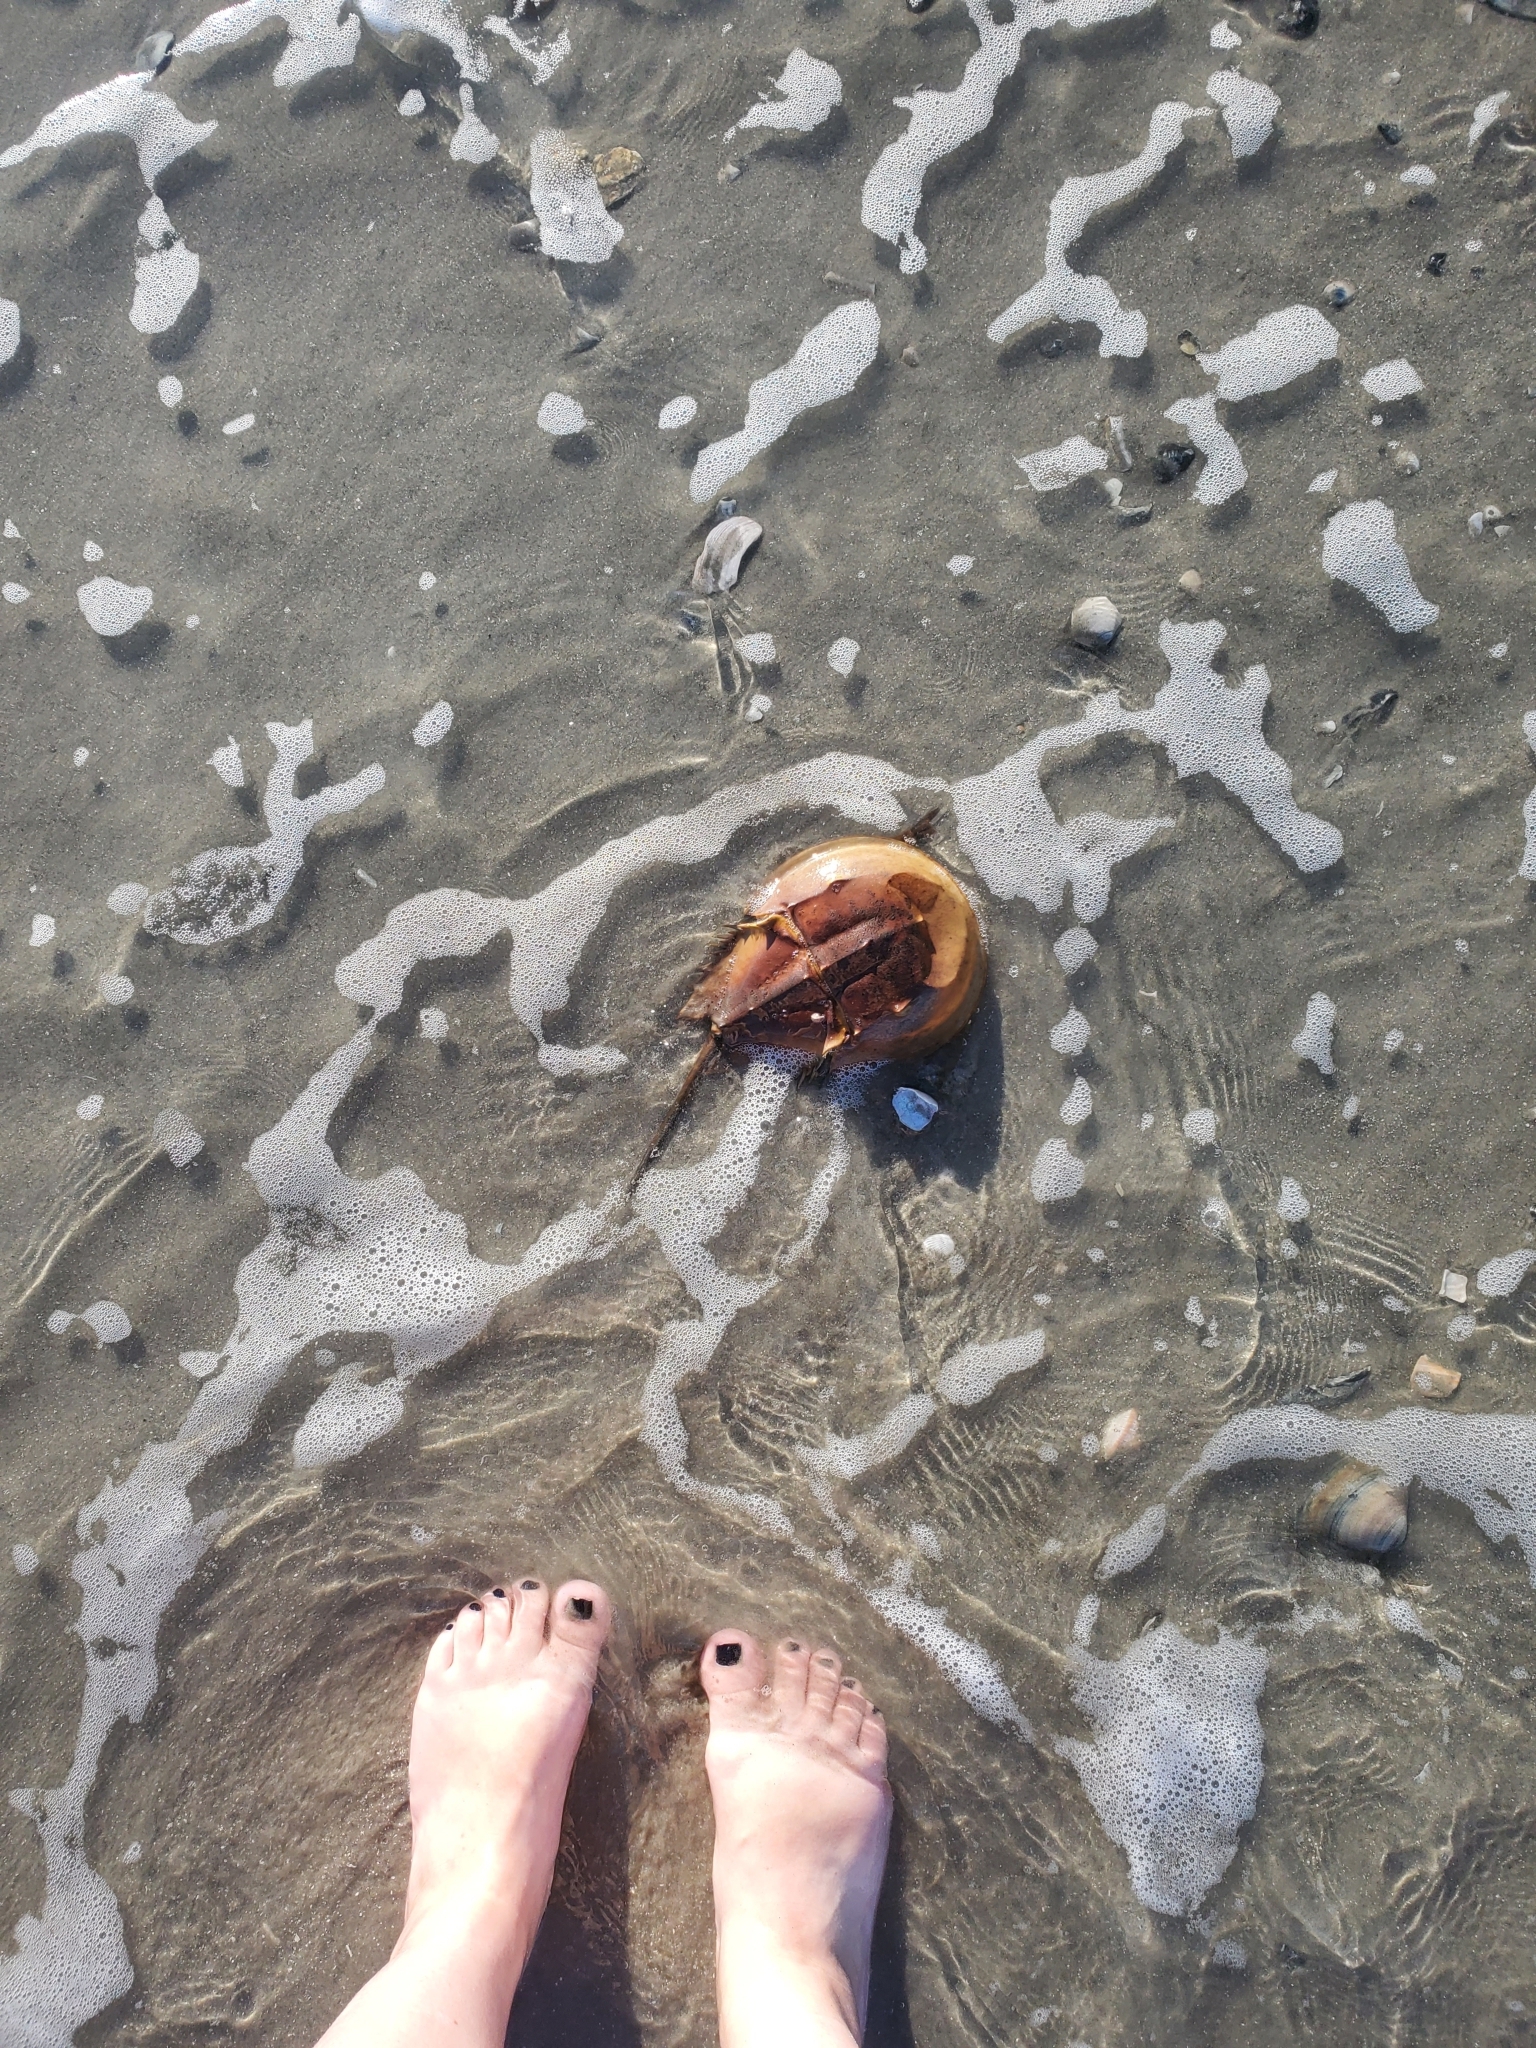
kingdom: Animalia
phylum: Arthropoda
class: Merostomata
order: Xiphosurida
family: Limulidae
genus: Limulus
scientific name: Limulus polyphemus
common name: Horseshoe crab
